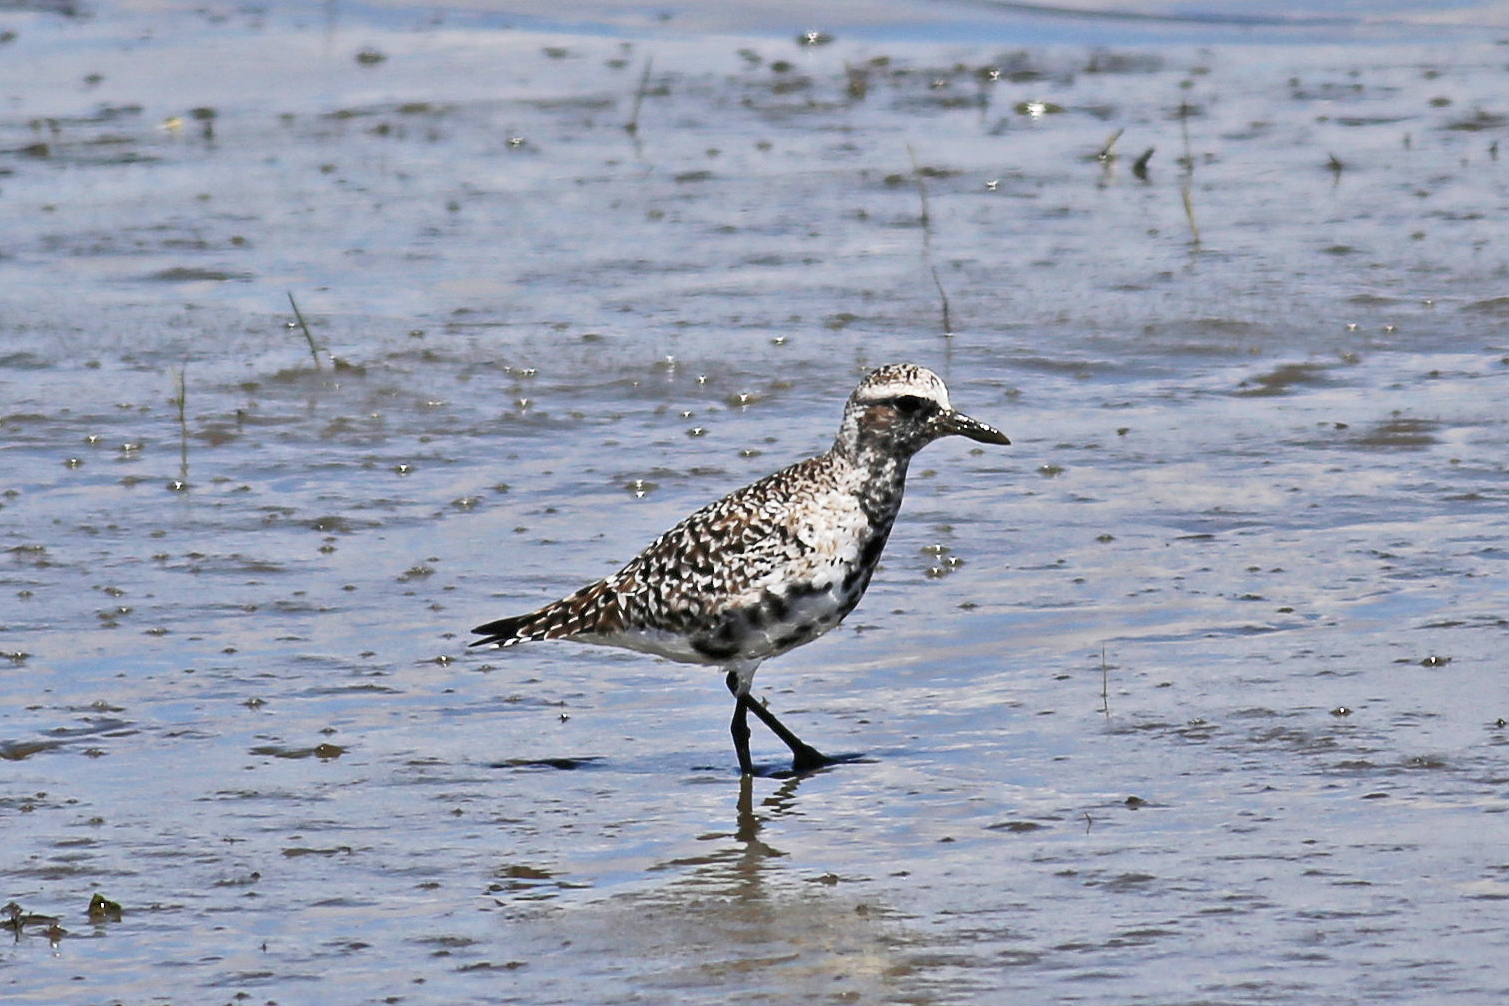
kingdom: Animalia
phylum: Chordata
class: Aves
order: Charadriiformes
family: Charadriidae
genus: Pluvialis
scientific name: Pluvialis squatarola
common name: Grey plover
